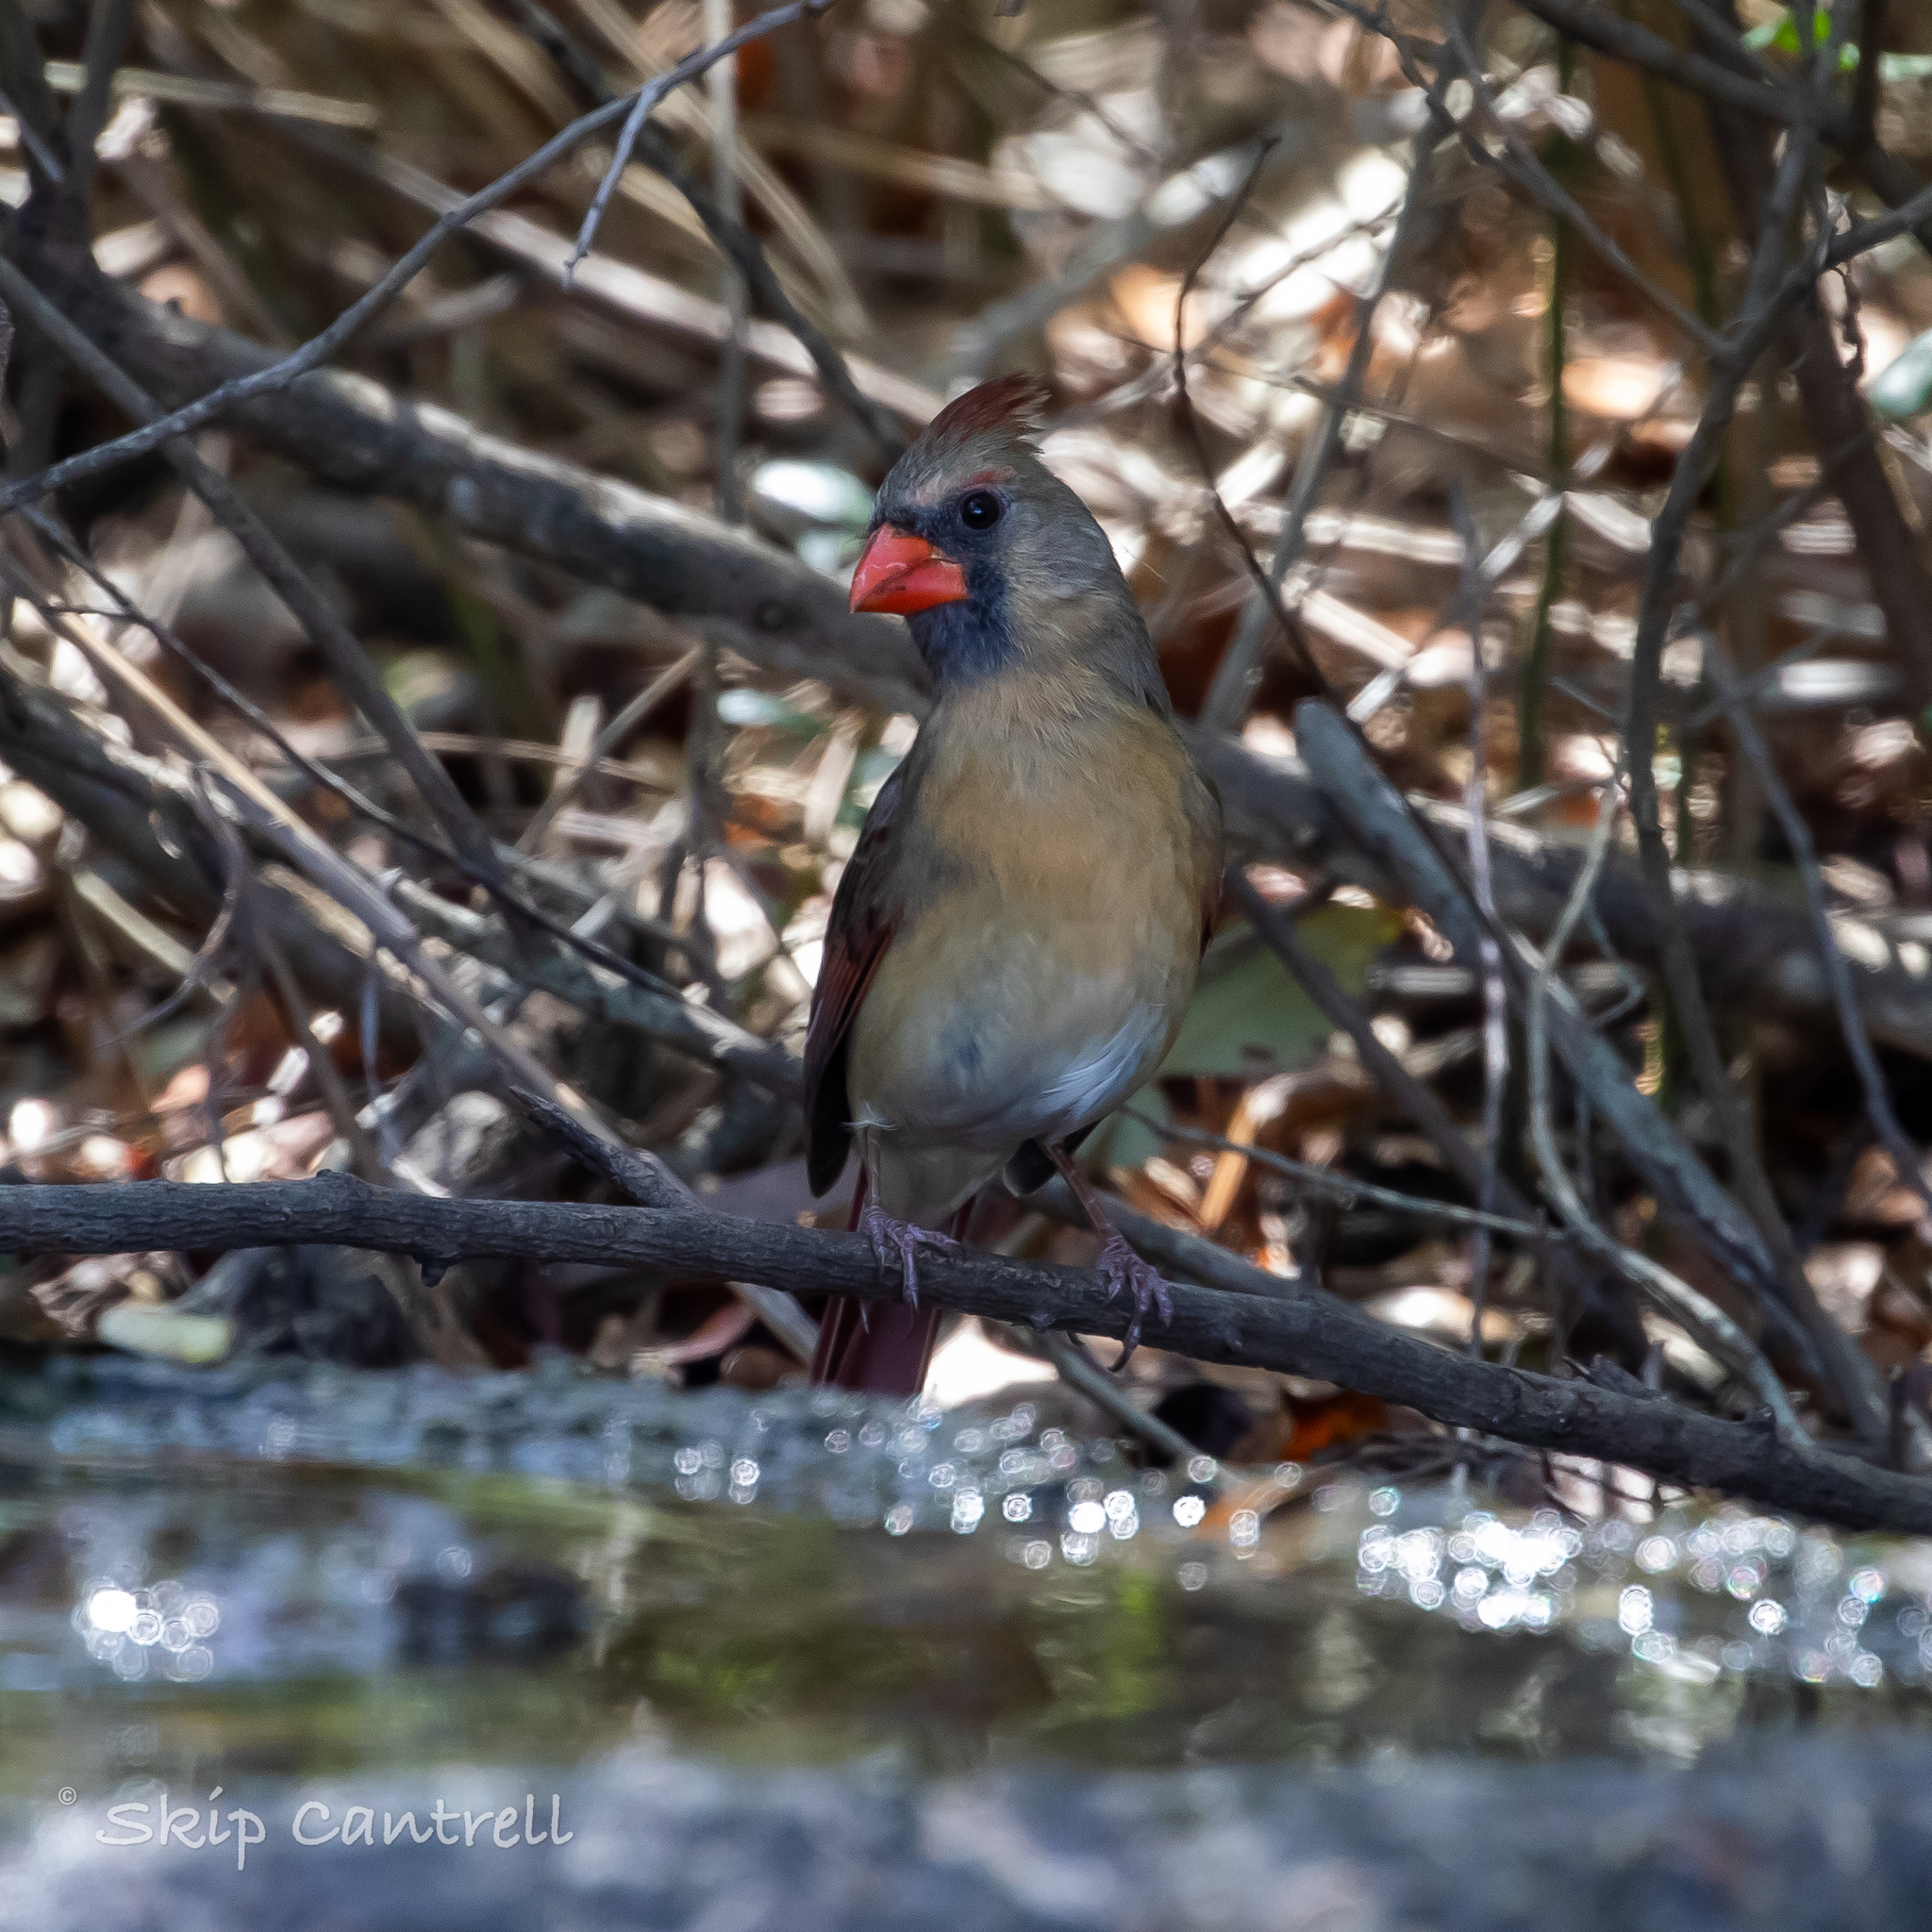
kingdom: Animalia
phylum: Chordata
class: Aves
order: Passeriformes
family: Cardinalidae
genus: Cardinalis
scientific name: Cardinalis cardinalis
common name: Northern cardinal
